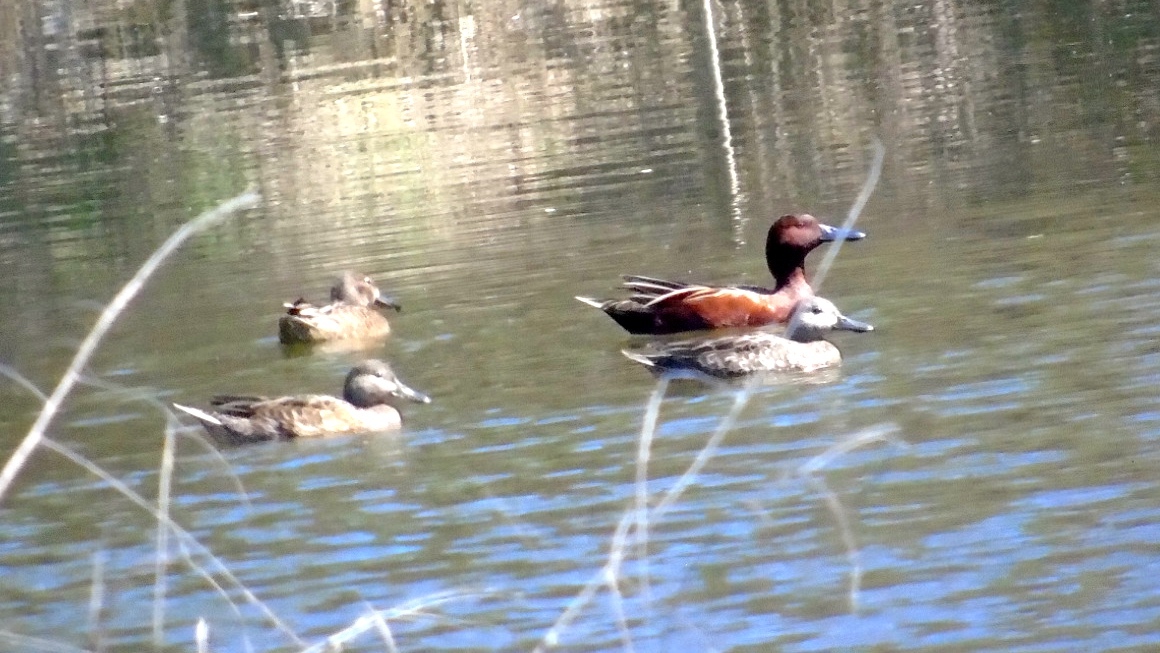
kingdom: Animalia
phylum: Chordata
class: Aves
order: Anseriformes
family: Anatidae
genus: Spatula
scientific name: Spatula cyanoptera
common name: Cinnamon teal
